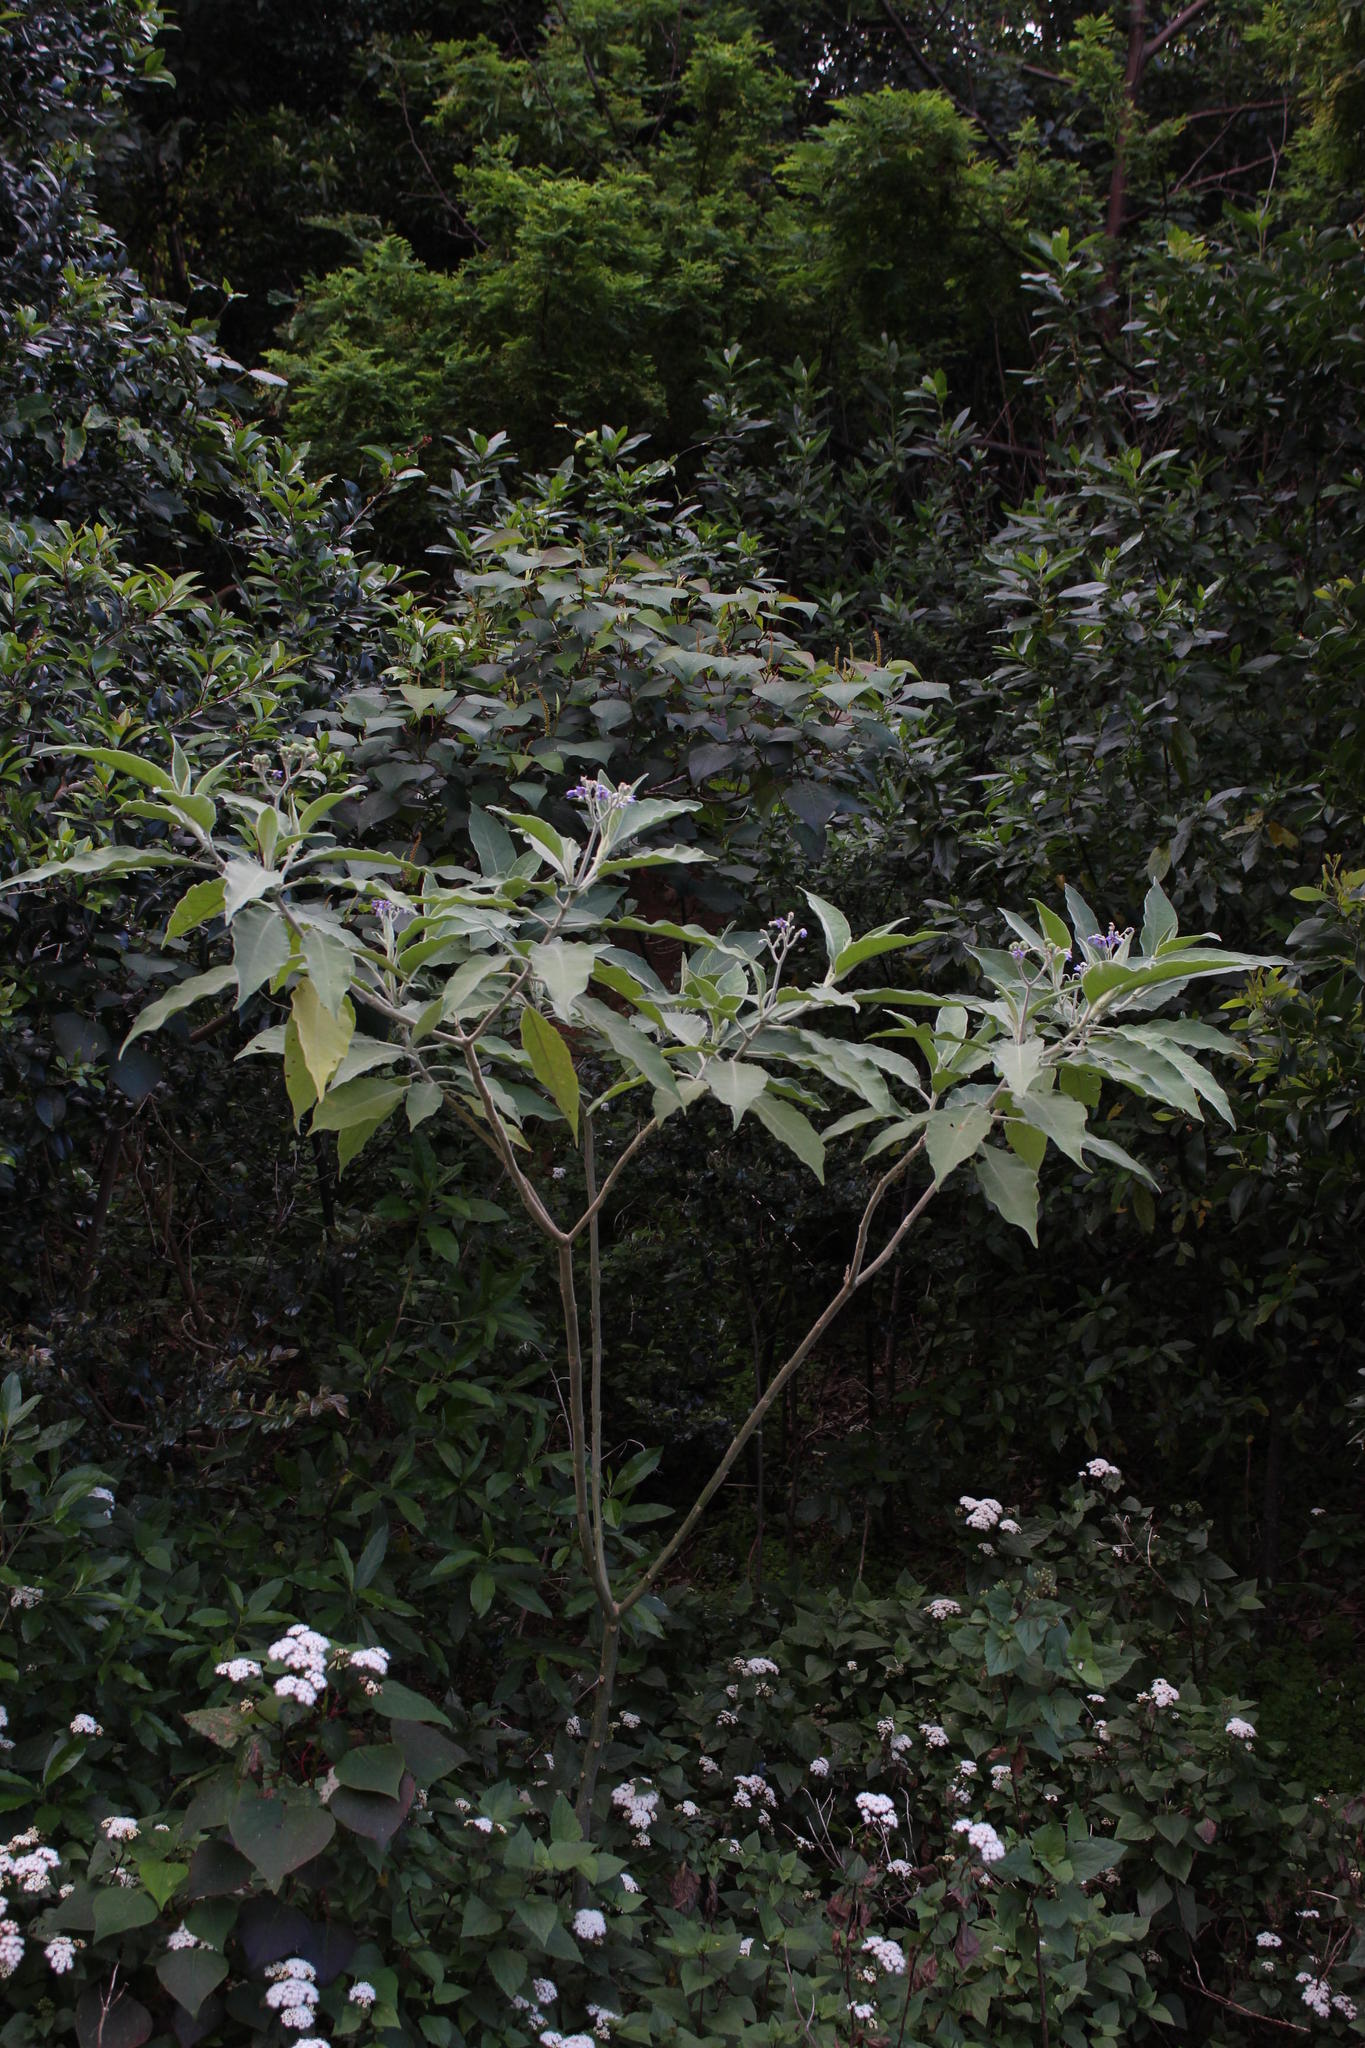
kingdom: Plantae
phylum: Tracheophyta
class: Magnoliopsida
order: Solanales
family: Solanaceae
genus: Solanum
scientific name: Solanum mauritianum
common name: Earleaf nightshade
